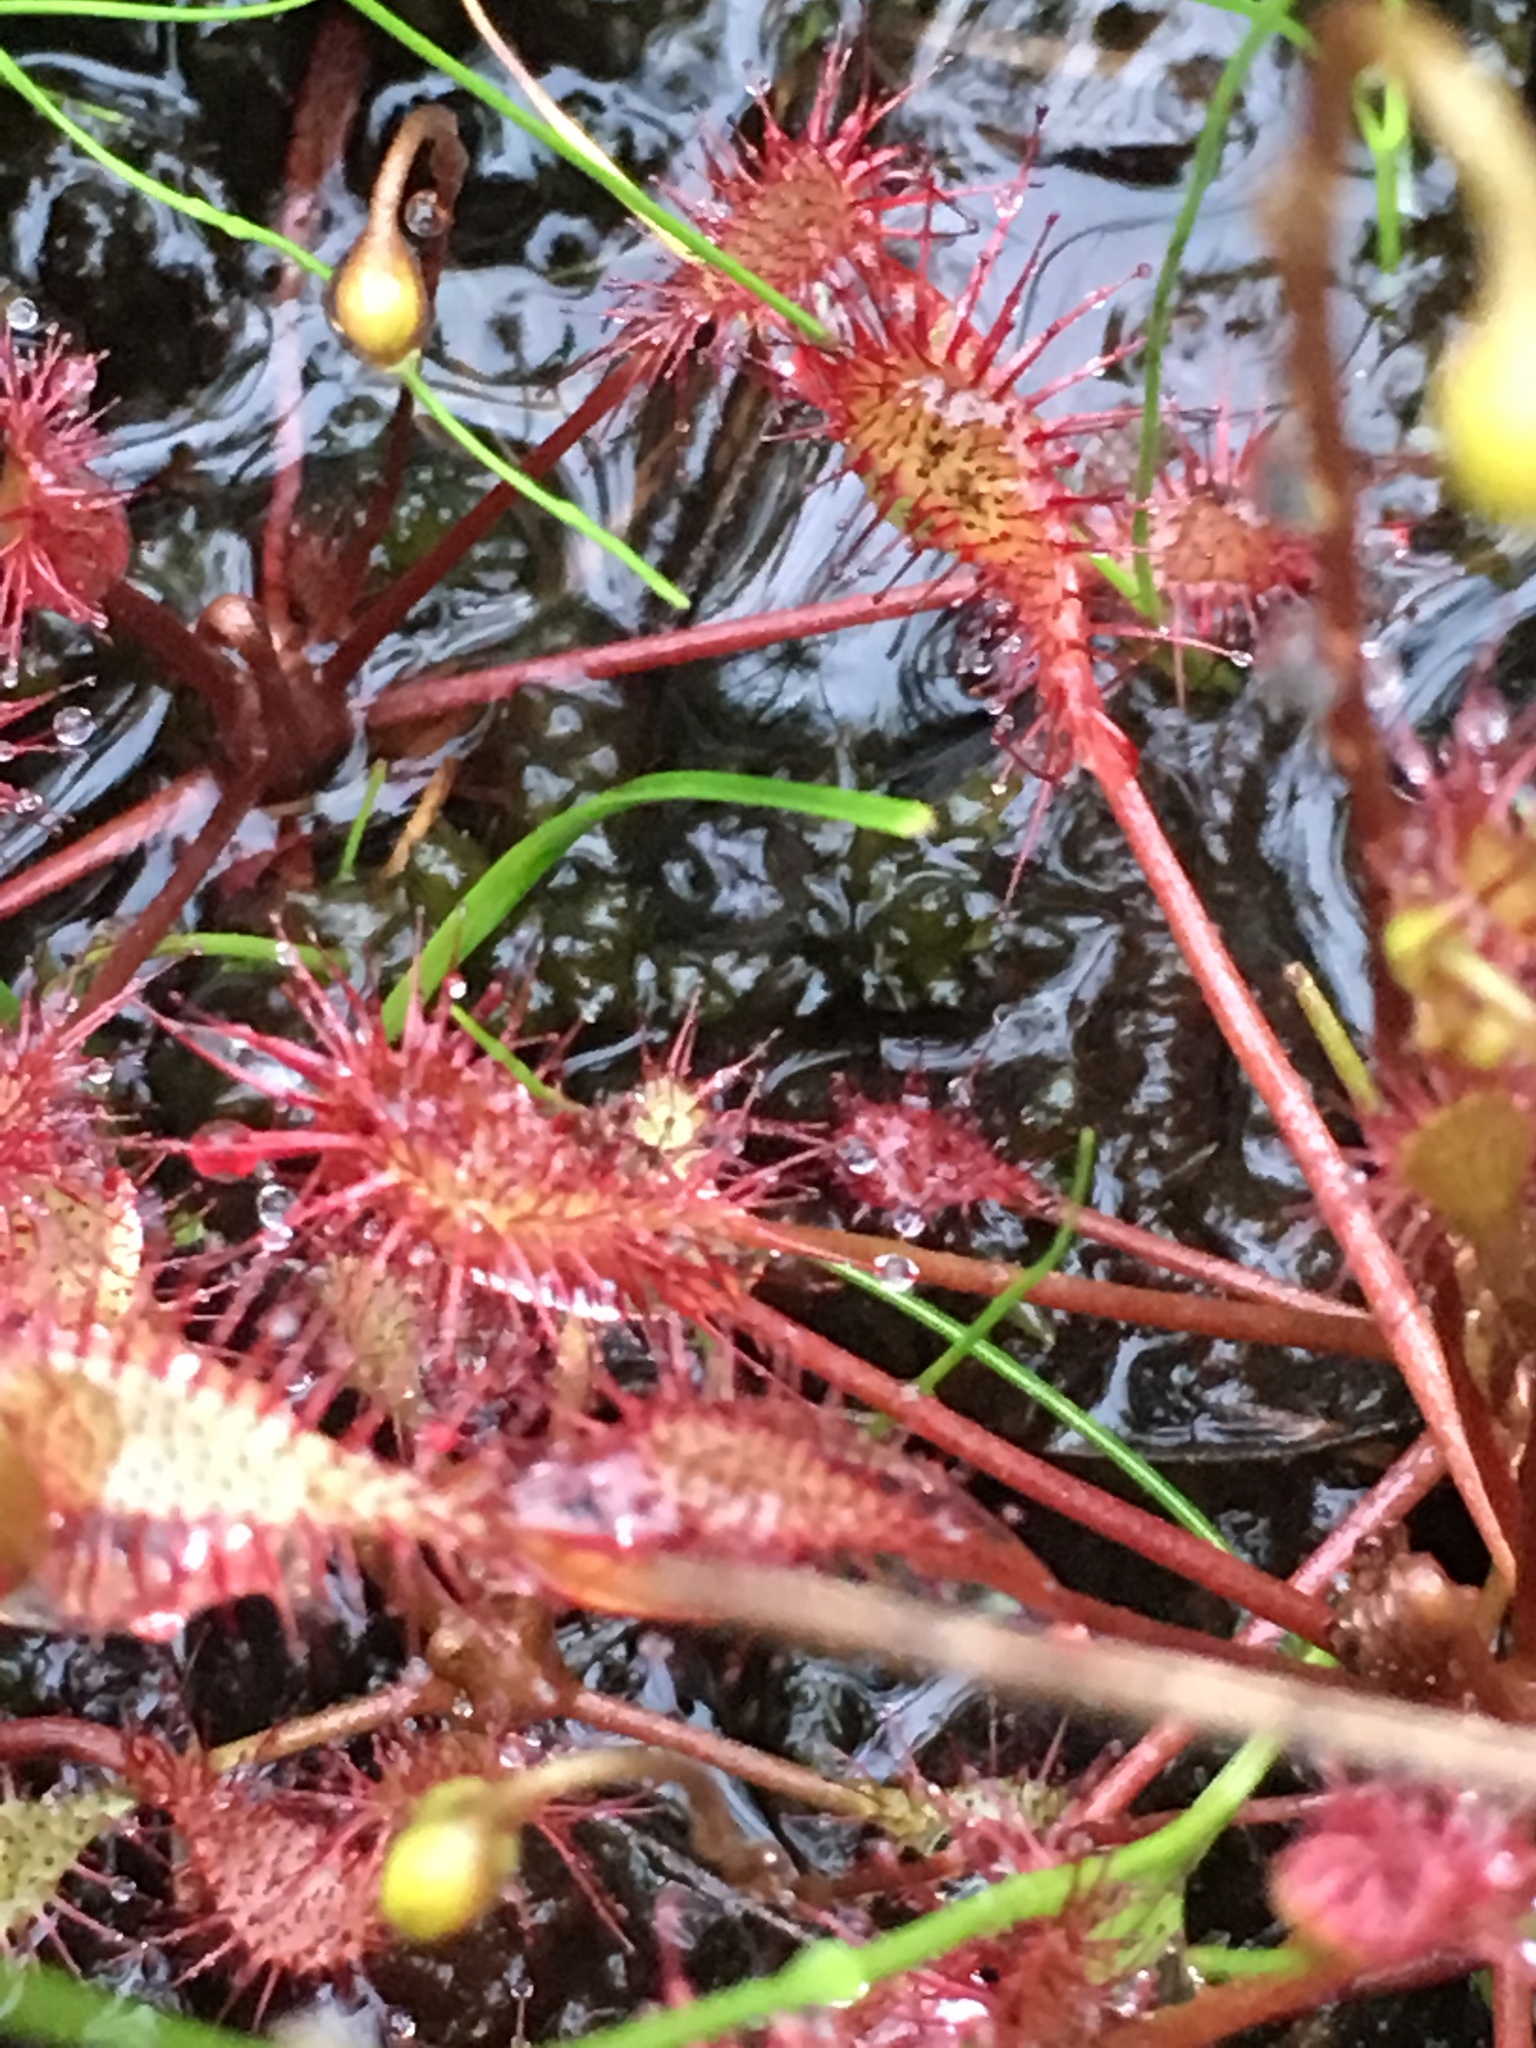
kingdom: Plantae
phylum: Tracheophyta
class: Magnoliopsida
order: Caryophyllales
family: Droseraceae
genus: Drosera
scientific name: Drosera intermedia
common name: Oblong-leaved sundew
